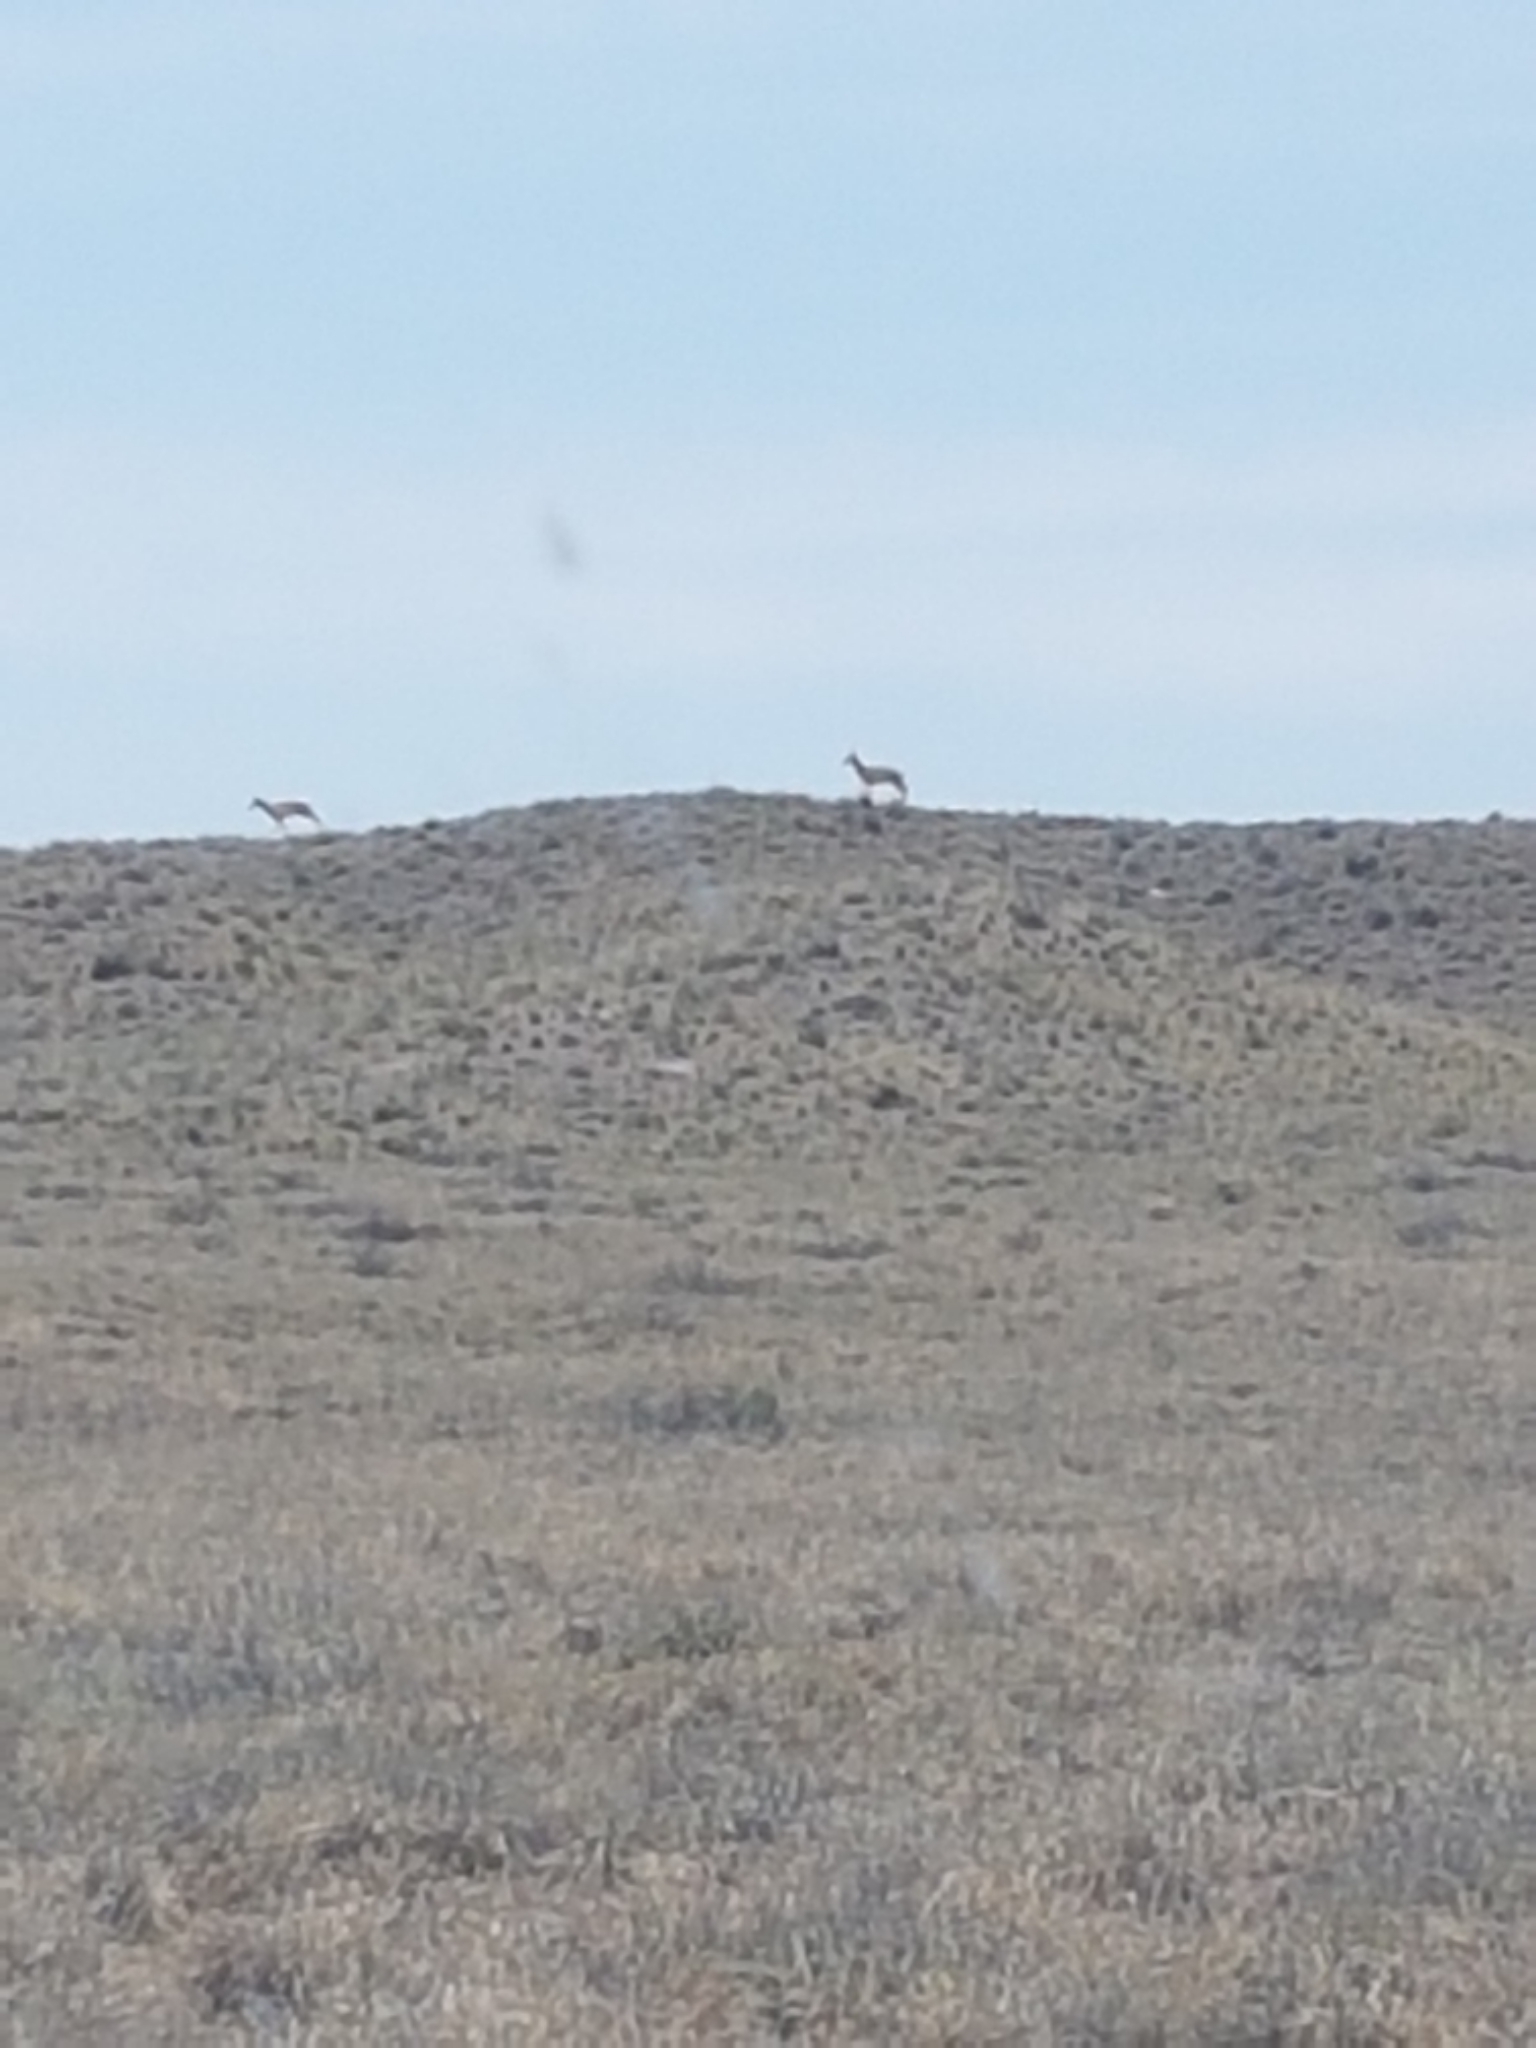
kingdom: Animalia
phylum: Chordata
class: Mammalia
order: Artiodactyla
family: Antilocapridae
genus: Antilocapra
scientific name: Antilocapra americana
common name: Pronghorn
